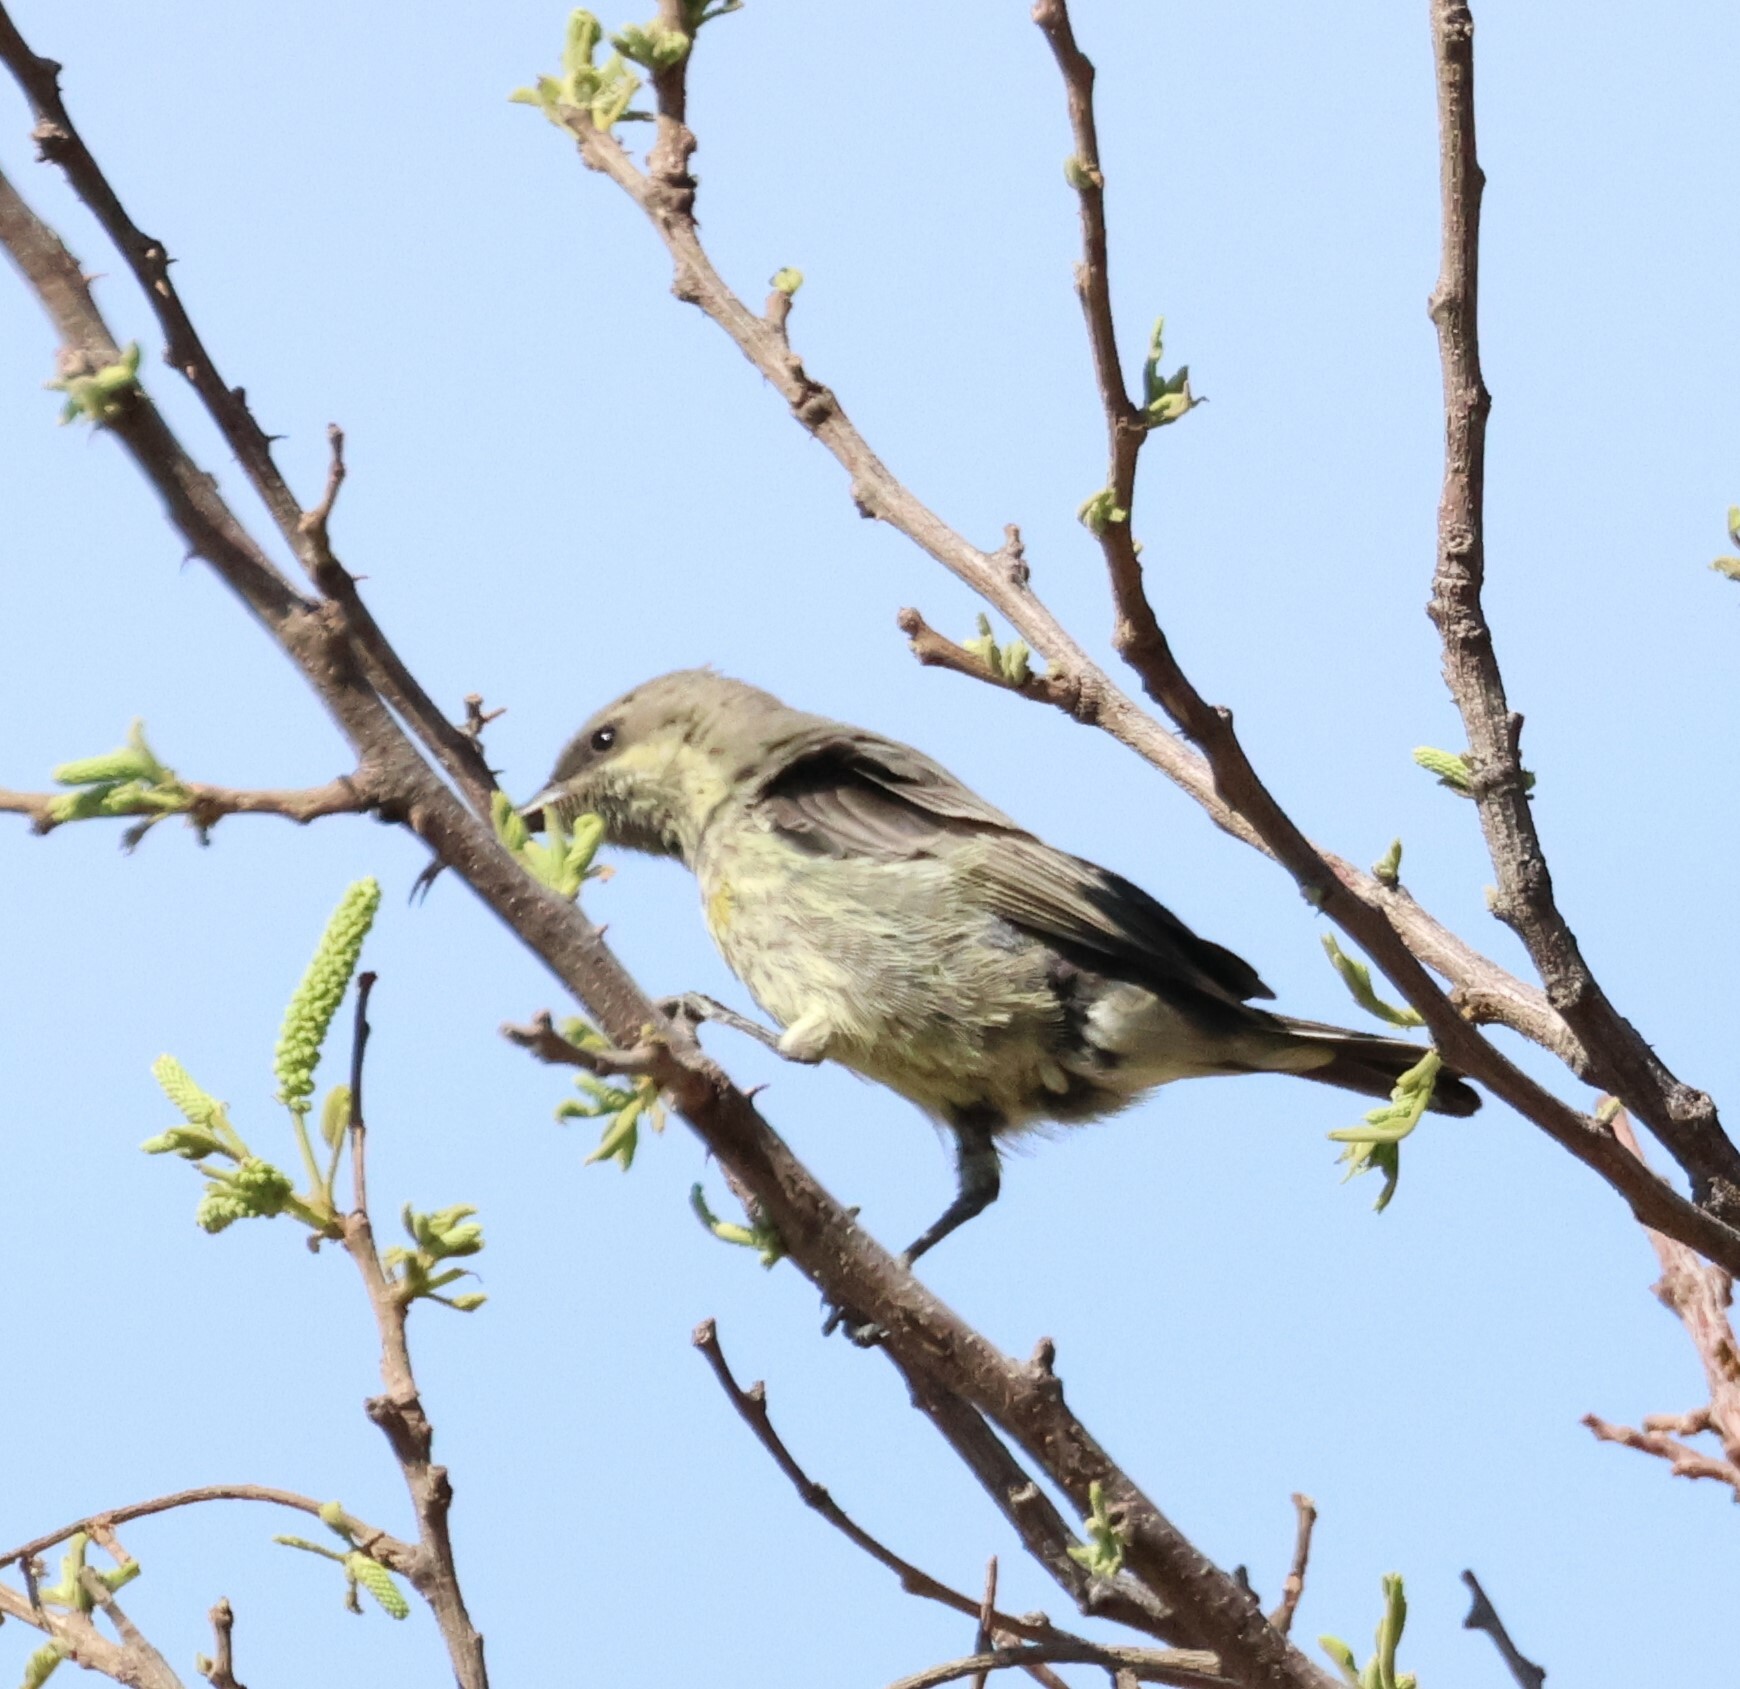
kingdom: Animalia
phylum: Chordata
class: Aves
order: Passeriformes
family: Nectariniidae
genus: Cinnyris
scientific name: Cinnyris mariquensis
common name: Marico sunbird
